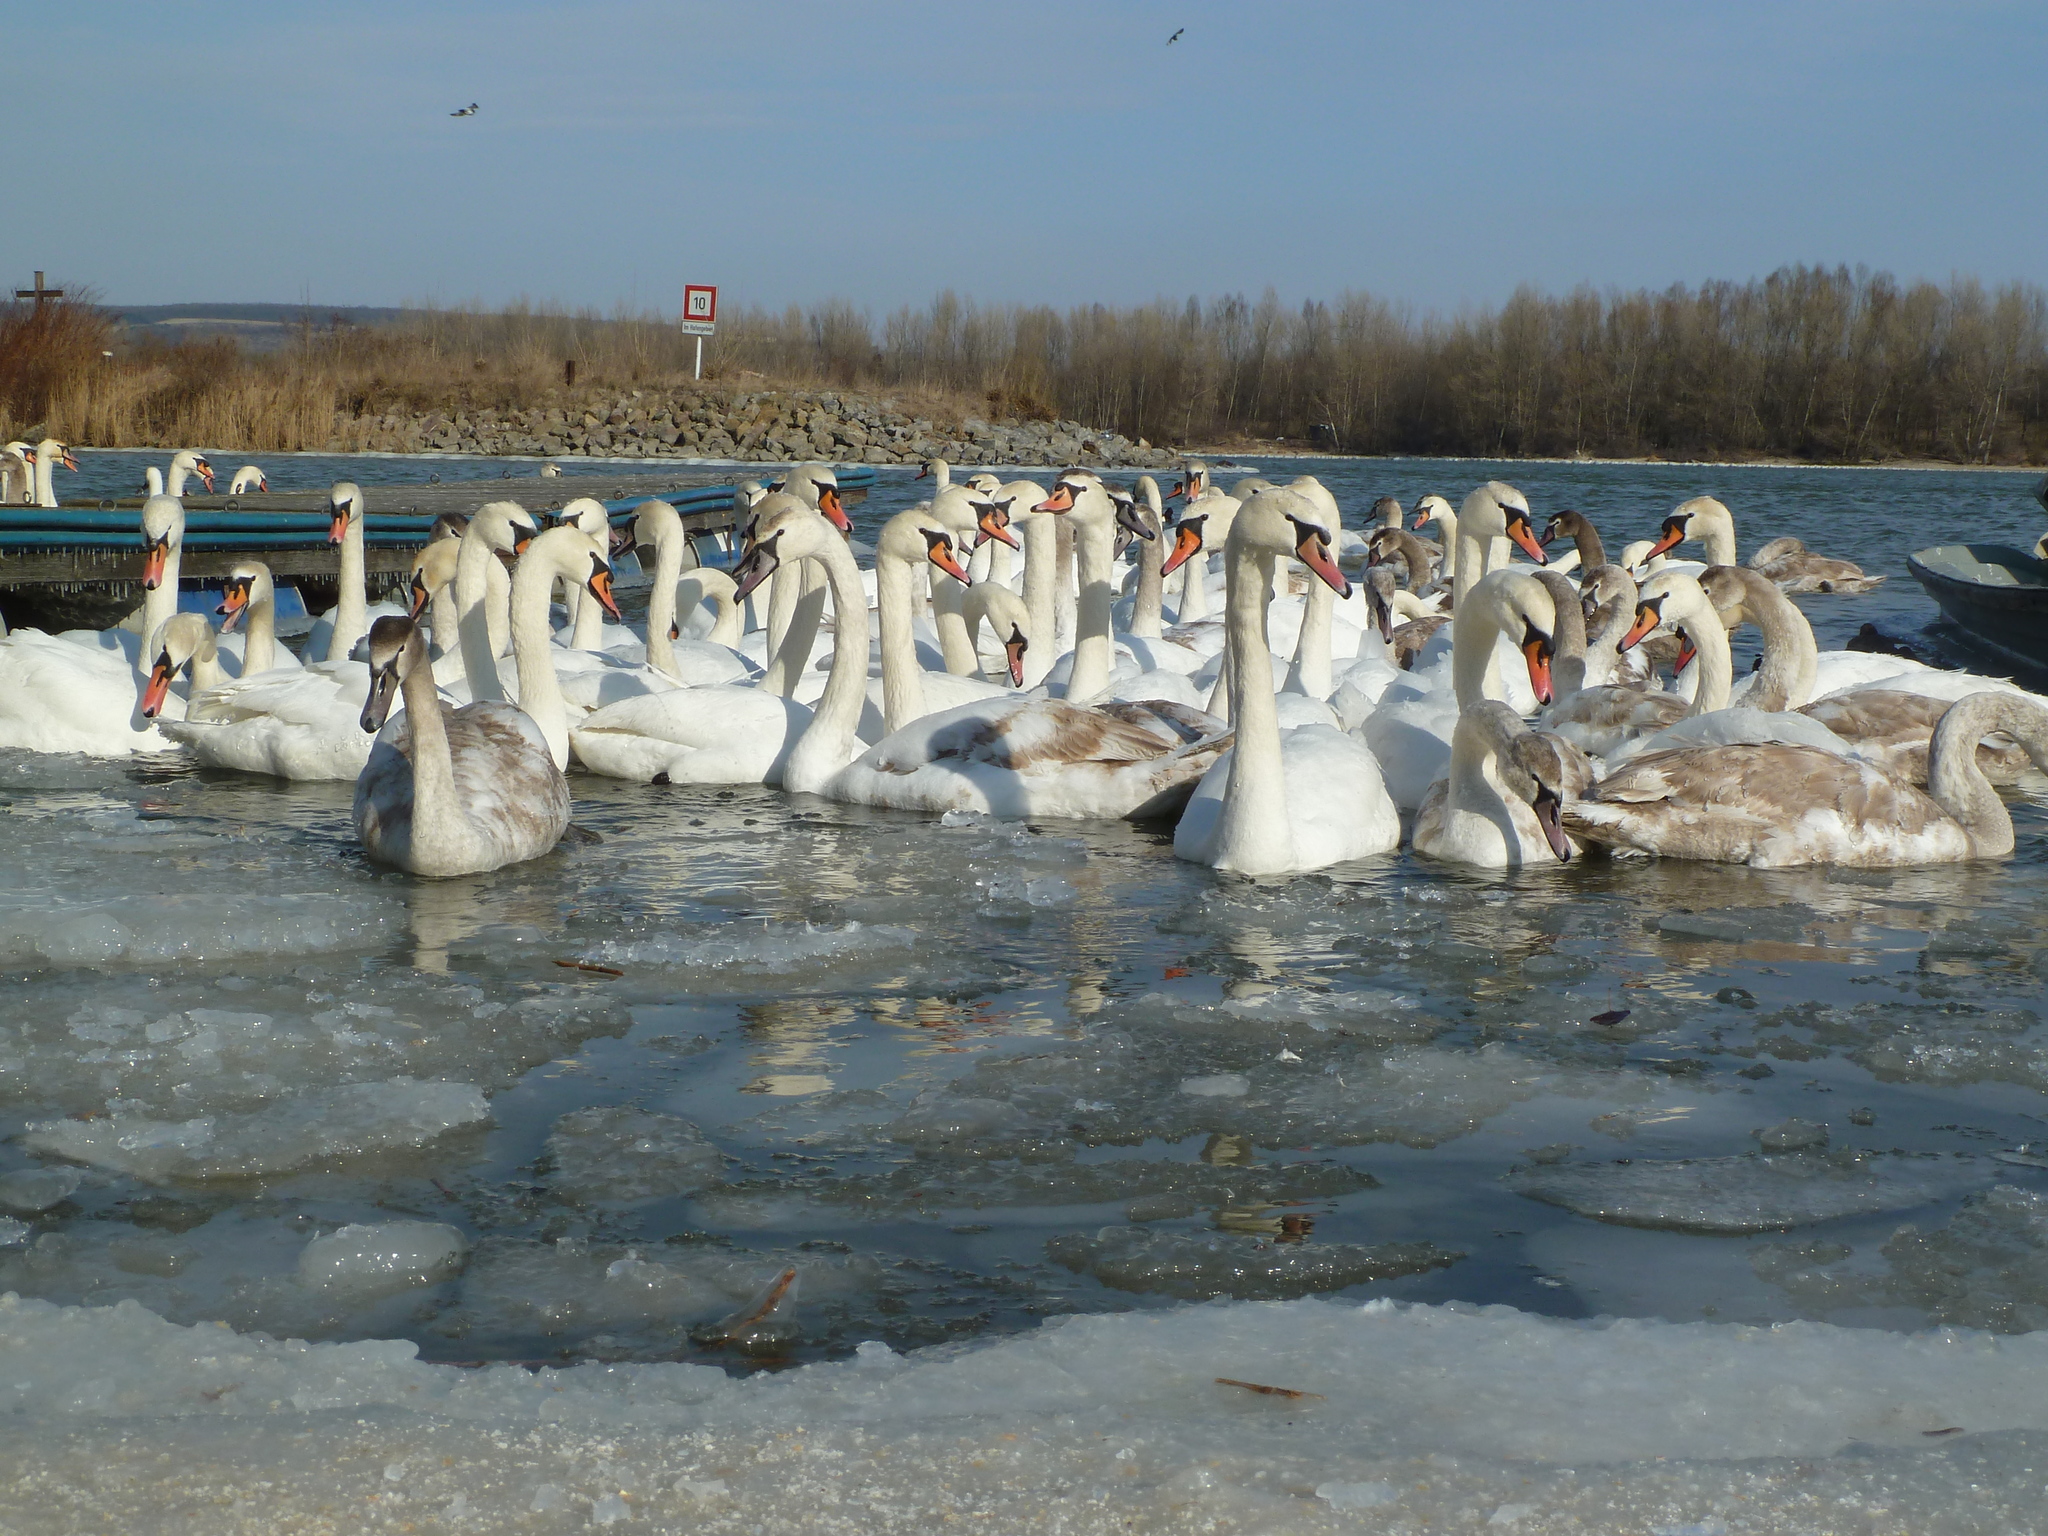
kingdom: Animalia
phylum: Chordata
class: Aves
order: Anseriformes
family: Anatidae
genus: Cygnus
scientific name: Cygnus olor
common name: Mute swan
